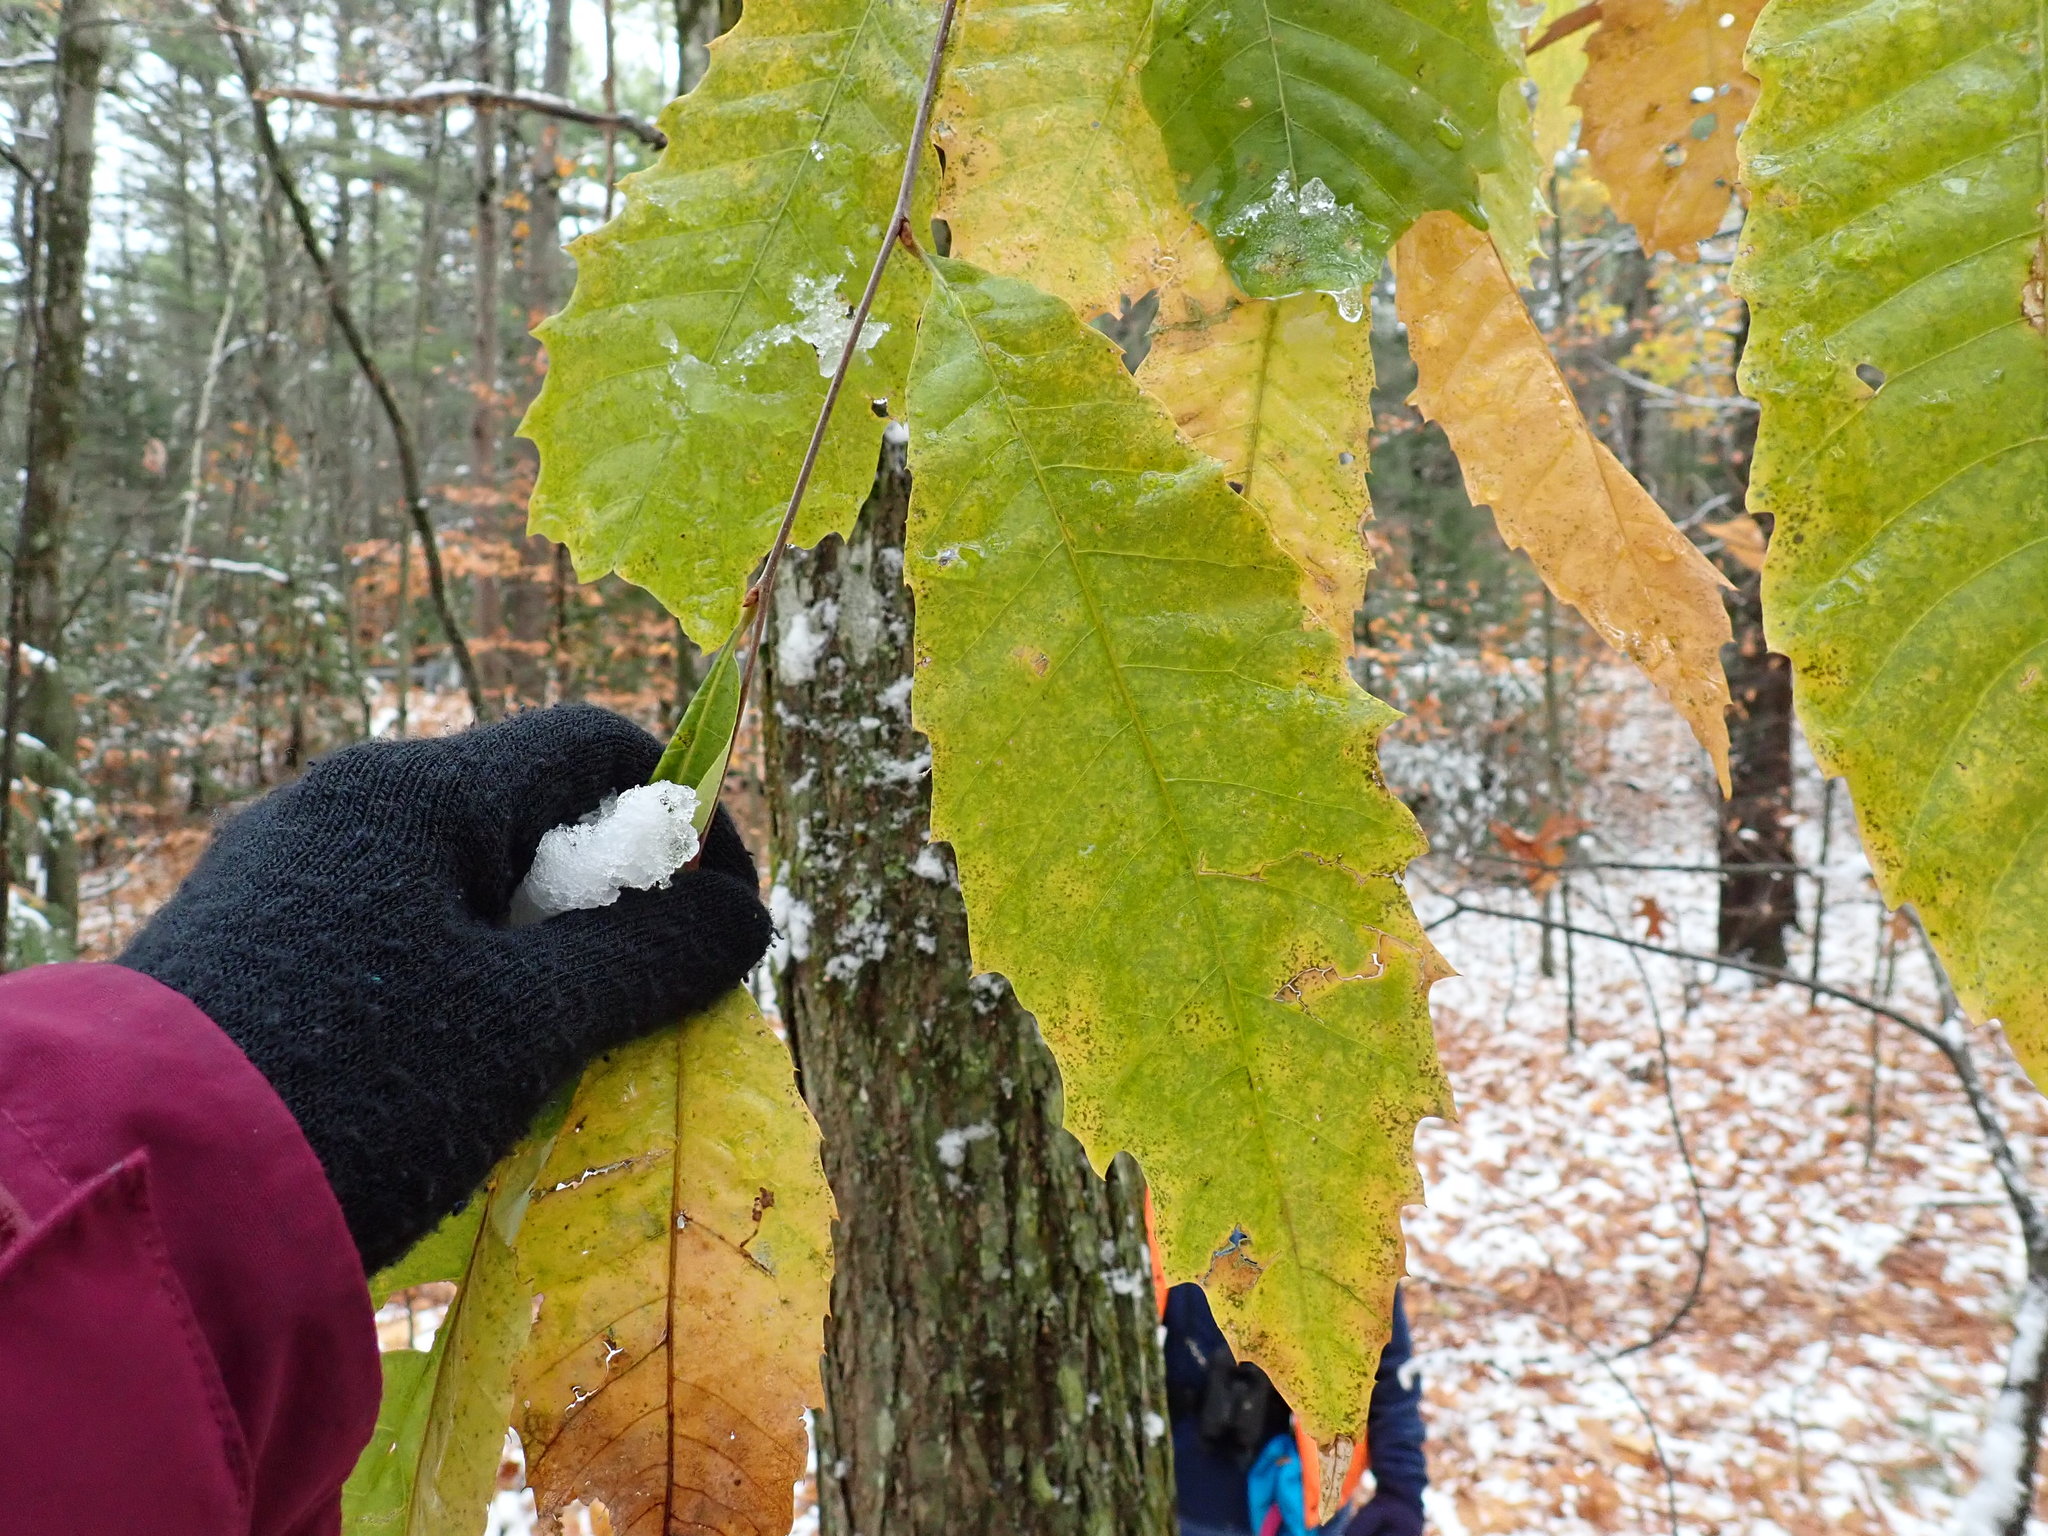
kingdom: Plantae
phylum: Tracheophyta
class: Magnoliopsida
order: Fagales
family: Fagaceae
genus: Castanea
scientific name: Castanea dentata
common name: American chestnut
